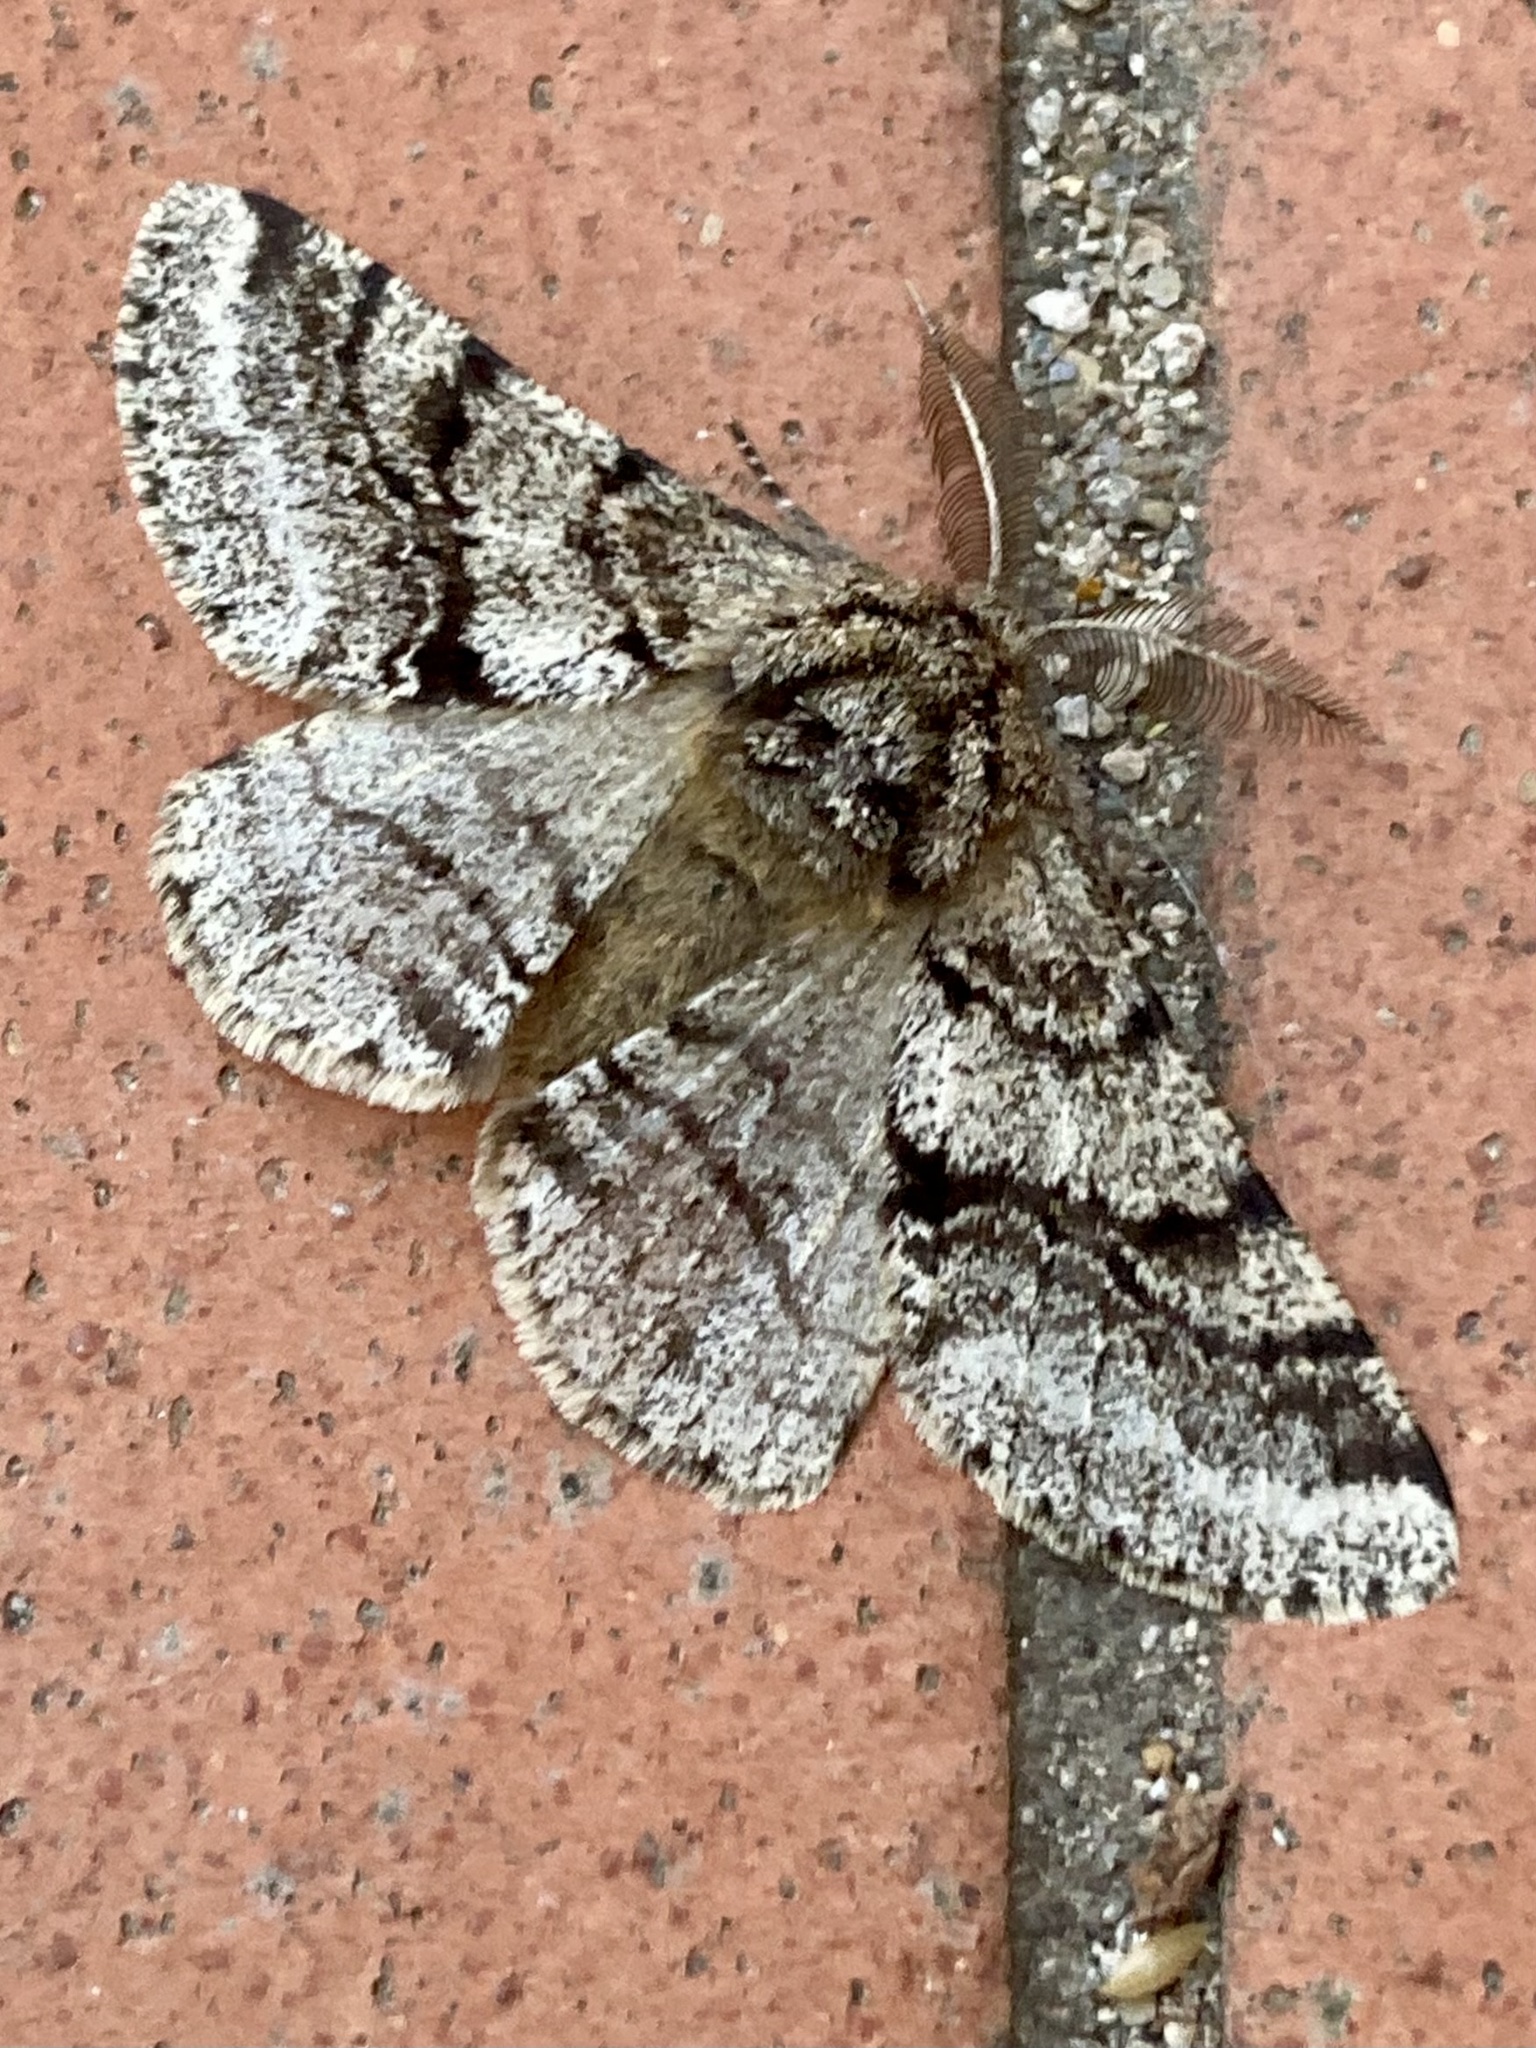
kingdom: Animalia
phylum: Arthropoda
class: Insecta
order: Lepidoptera
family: Geometridae
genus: Lycia
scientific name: Lycia hirtaria
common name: Brindled beauty
